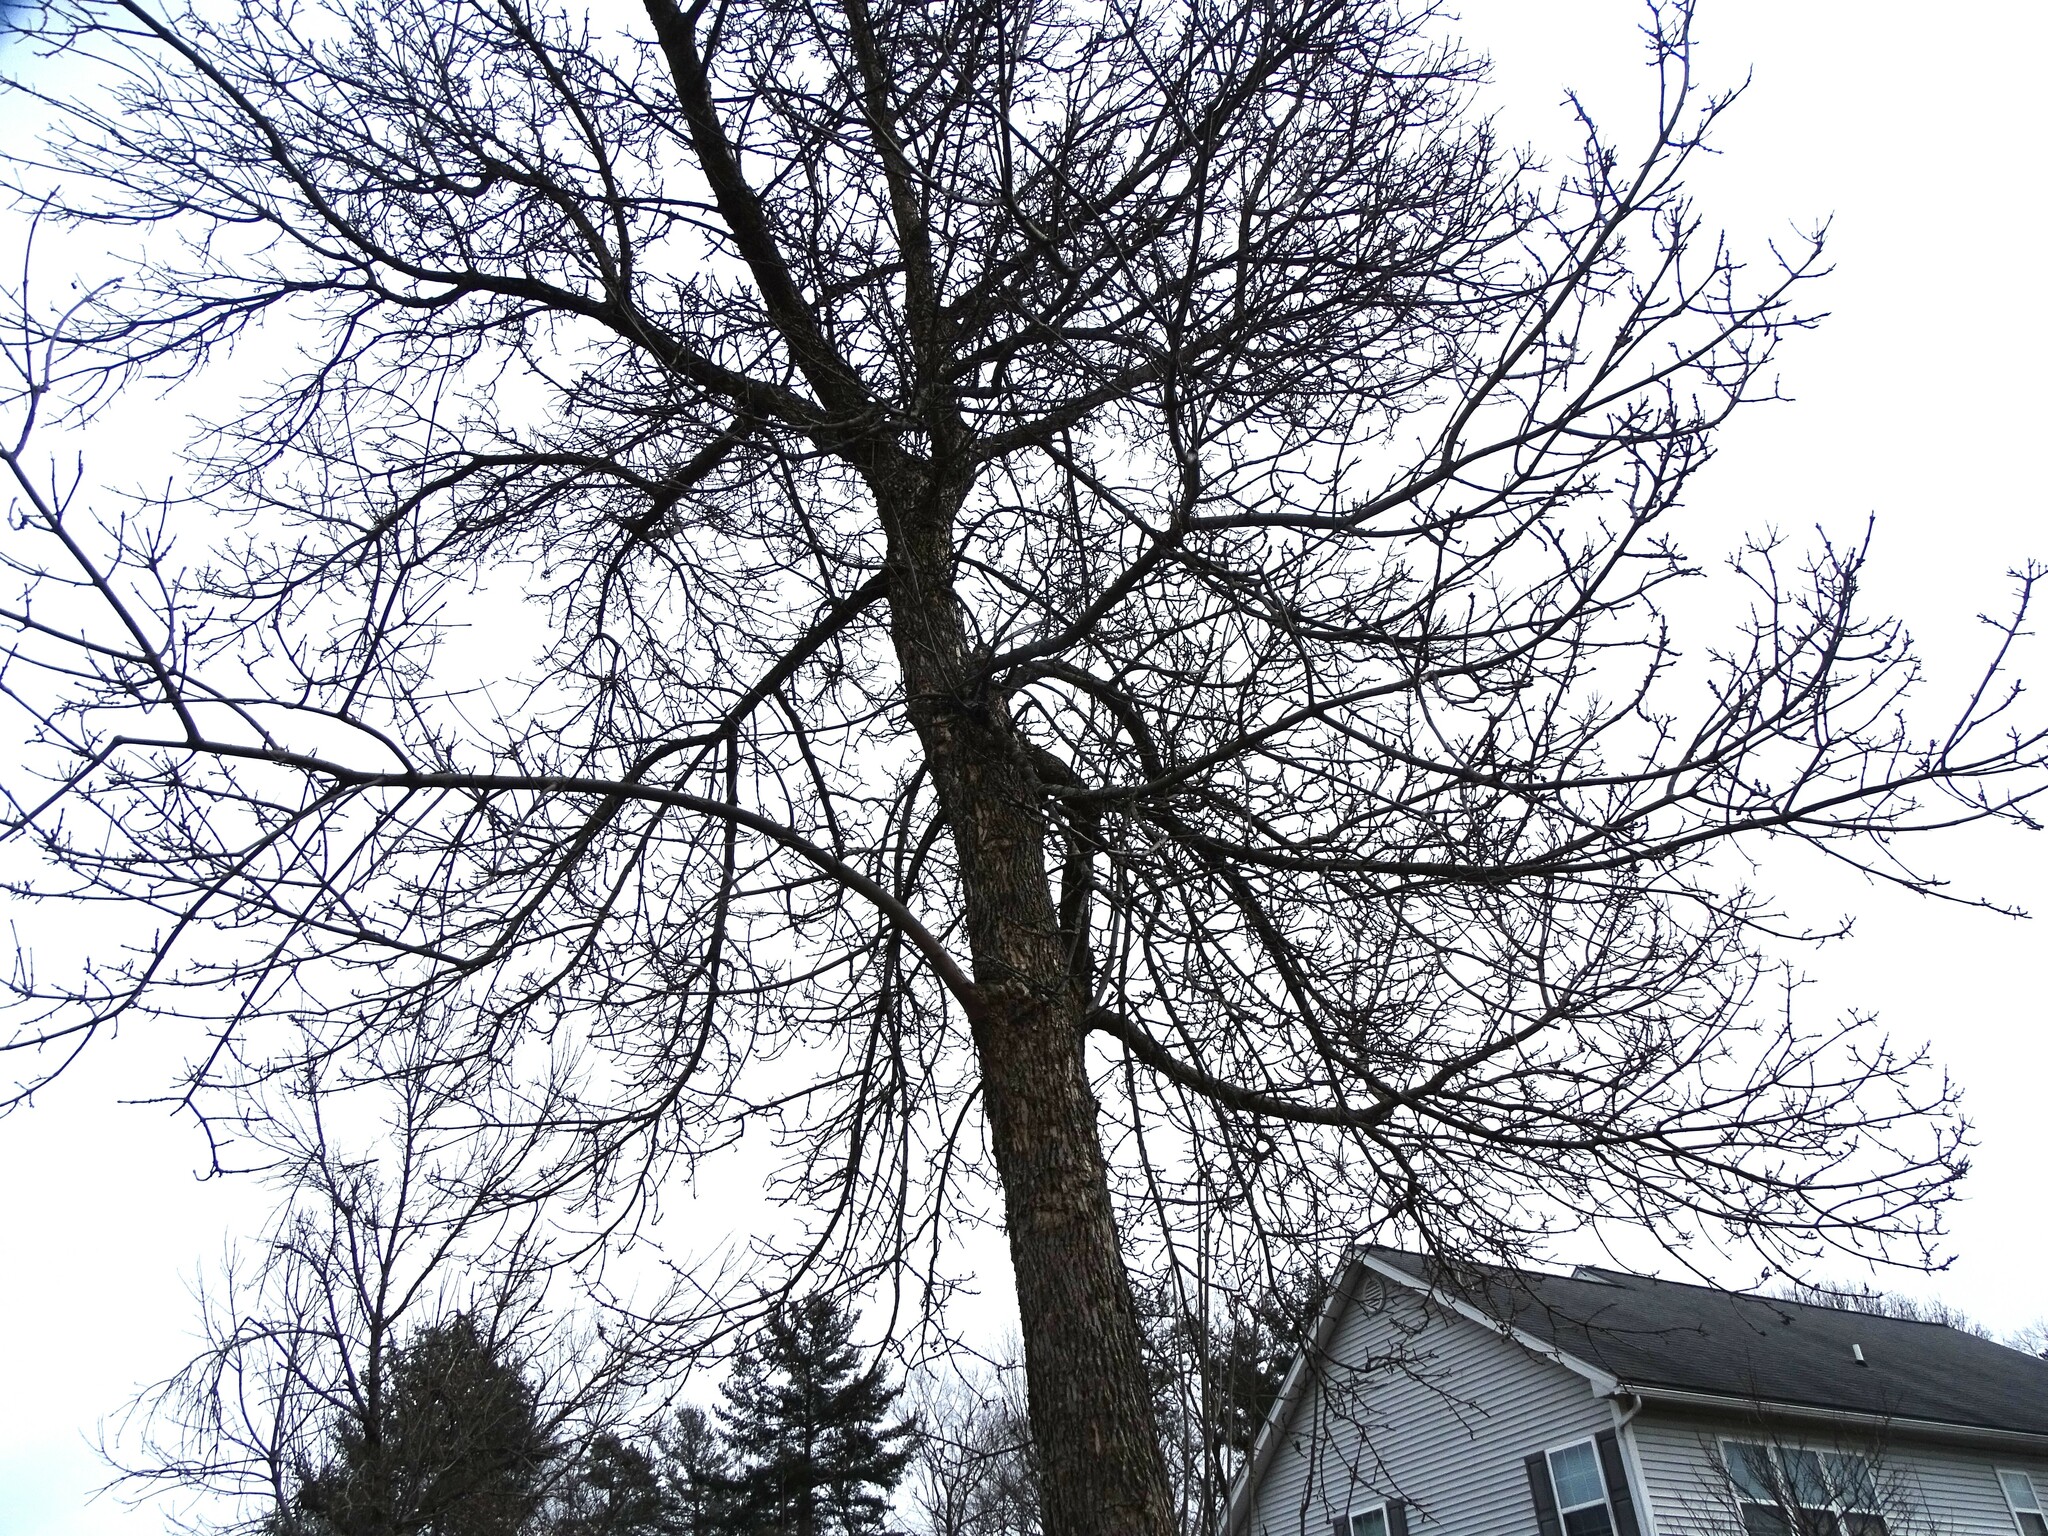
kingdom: Animalia
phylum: Arthropoda
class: Insecta
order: Coleoptera
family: Buprestidae
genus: Agrilus
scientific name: Agrilus planipennis
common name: Emerald ash borer
